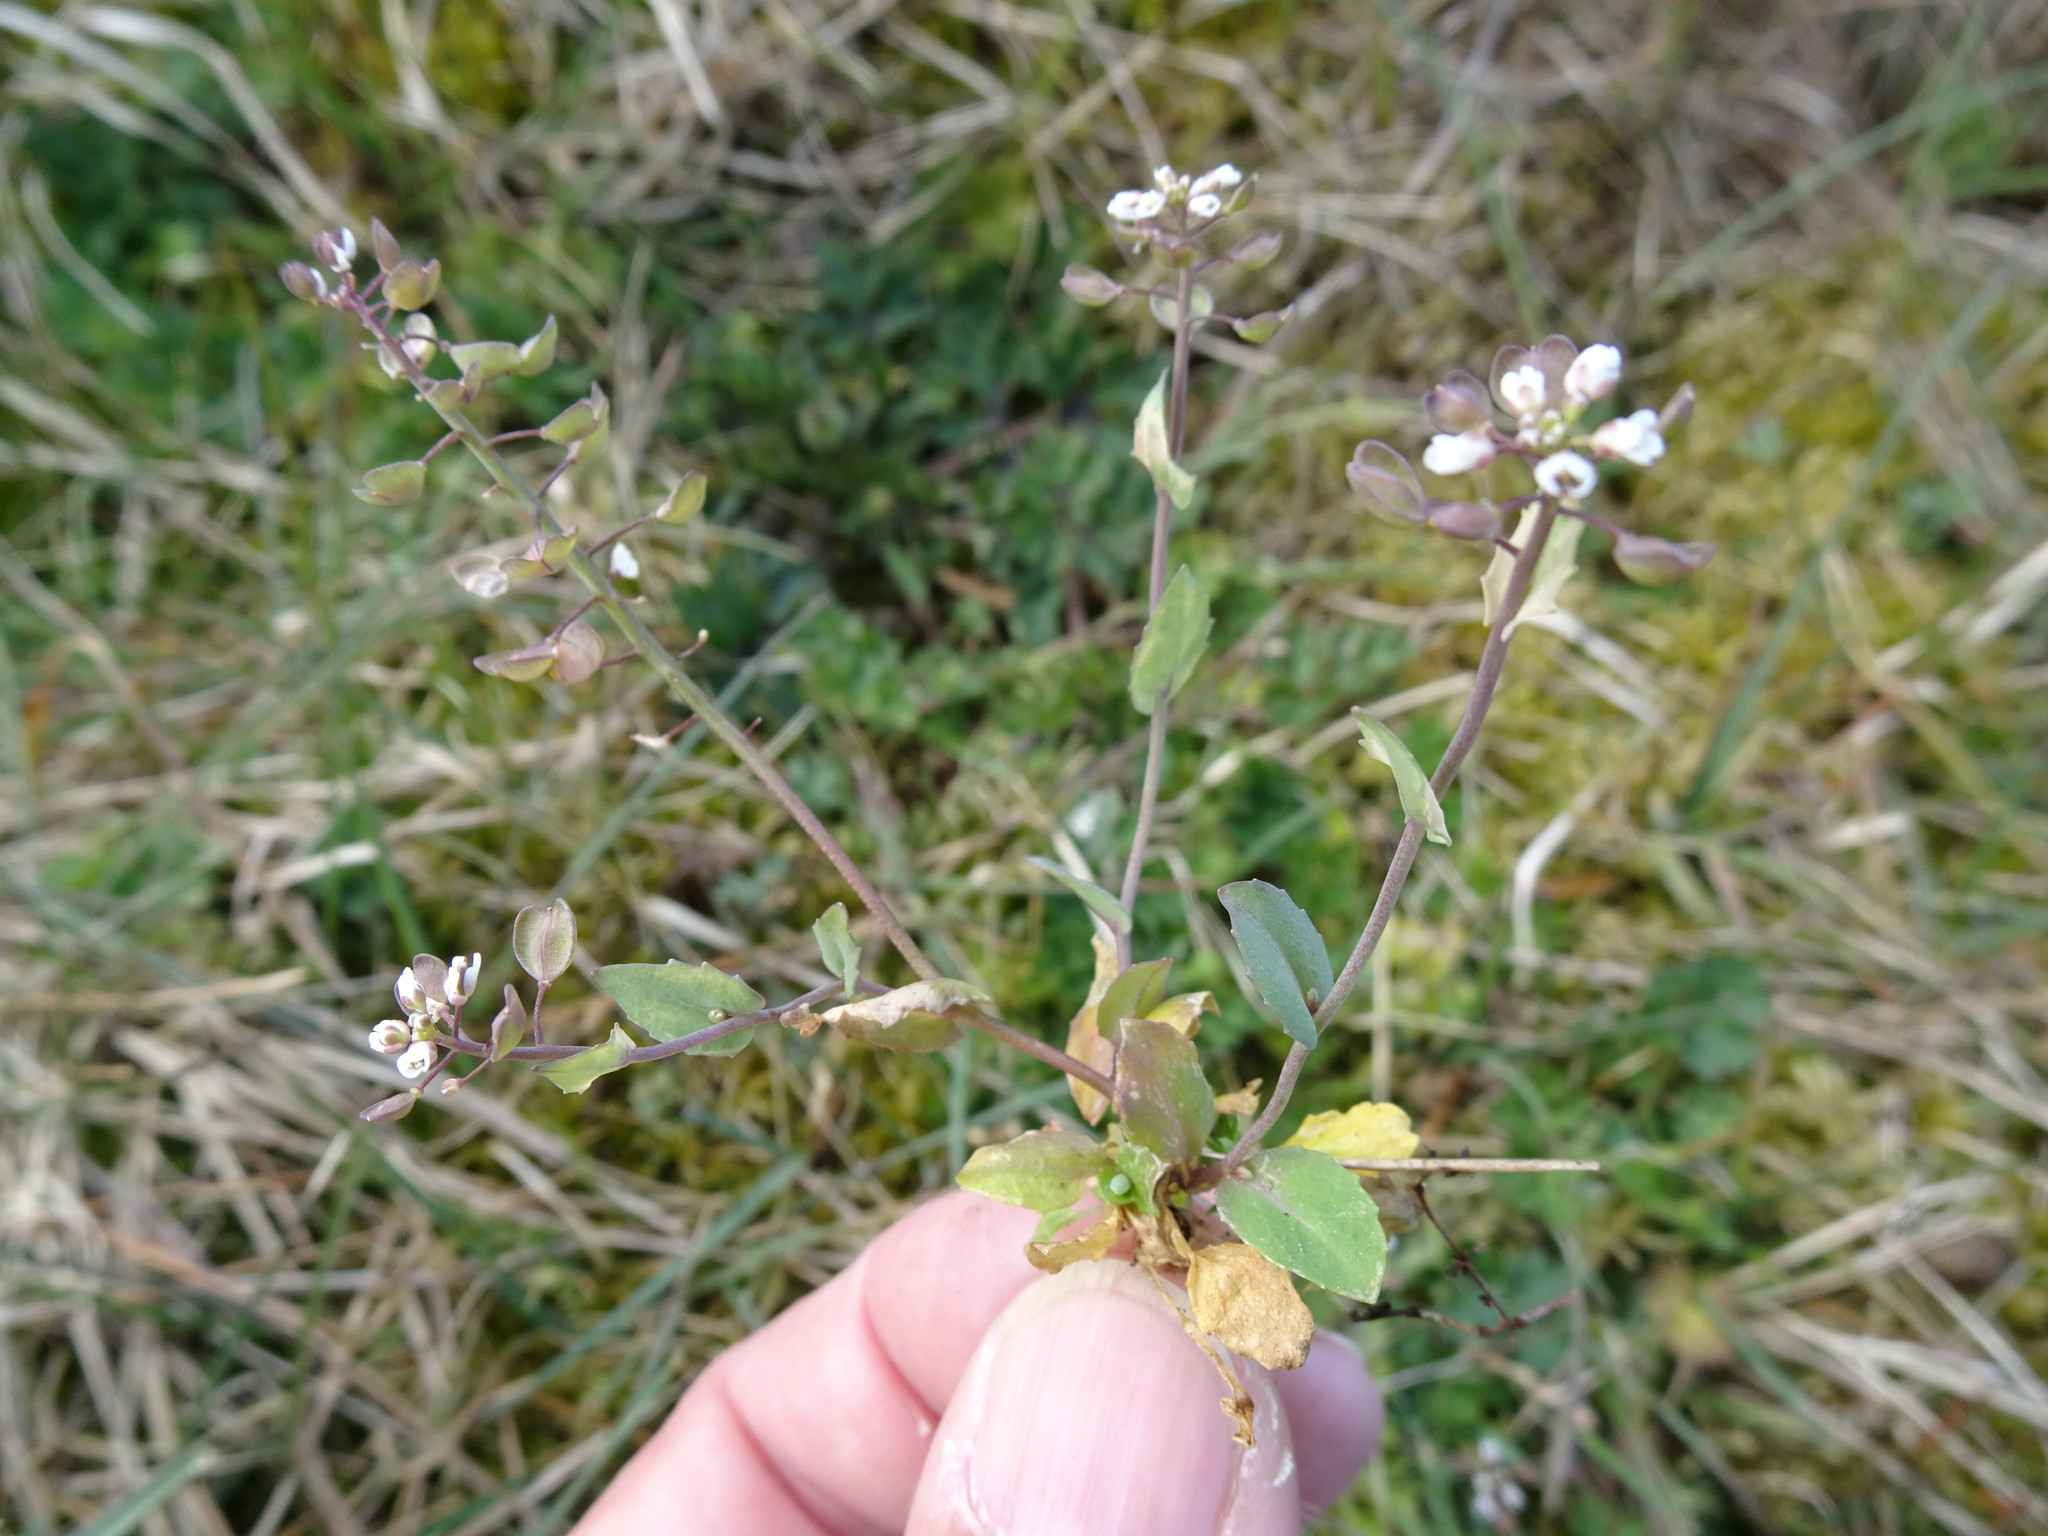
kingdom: Plantae
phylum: Tracheophyta
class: Magnoliopsida
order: Brassicales
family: Brassicaceae
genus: Noccaea
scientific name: Noccaea perfoliata
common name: Perfoliate pennycress
